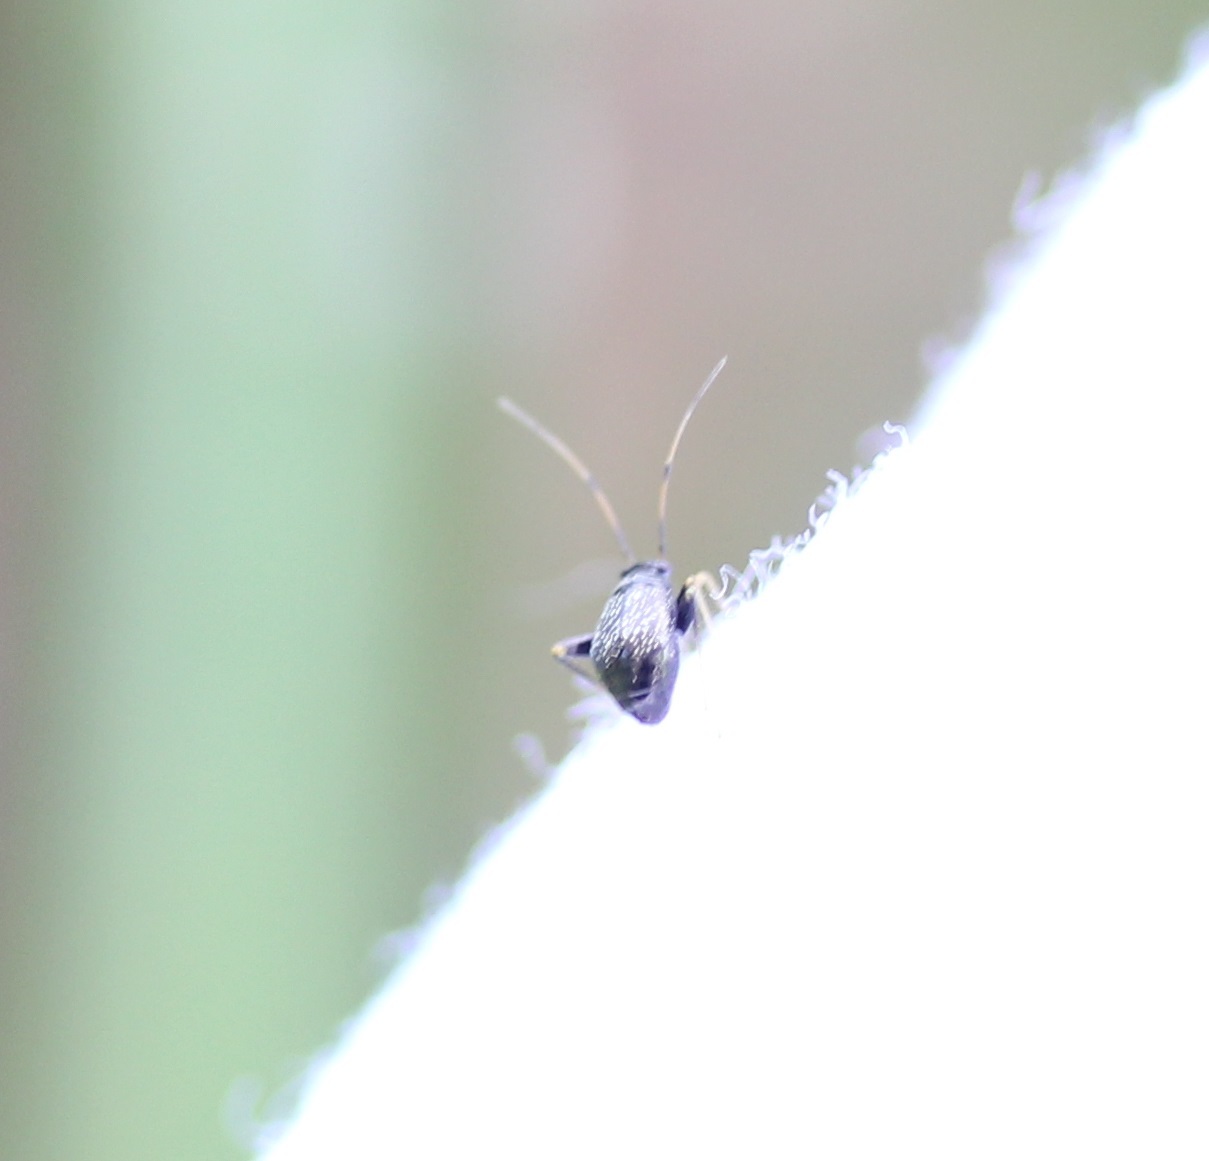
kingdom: Animalia
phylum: Arthropoda
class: Insecta
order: Hemiptera
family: Miridae
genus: Microtechnites
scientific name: Microtechnites bractatus
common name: Garden fleahopper
